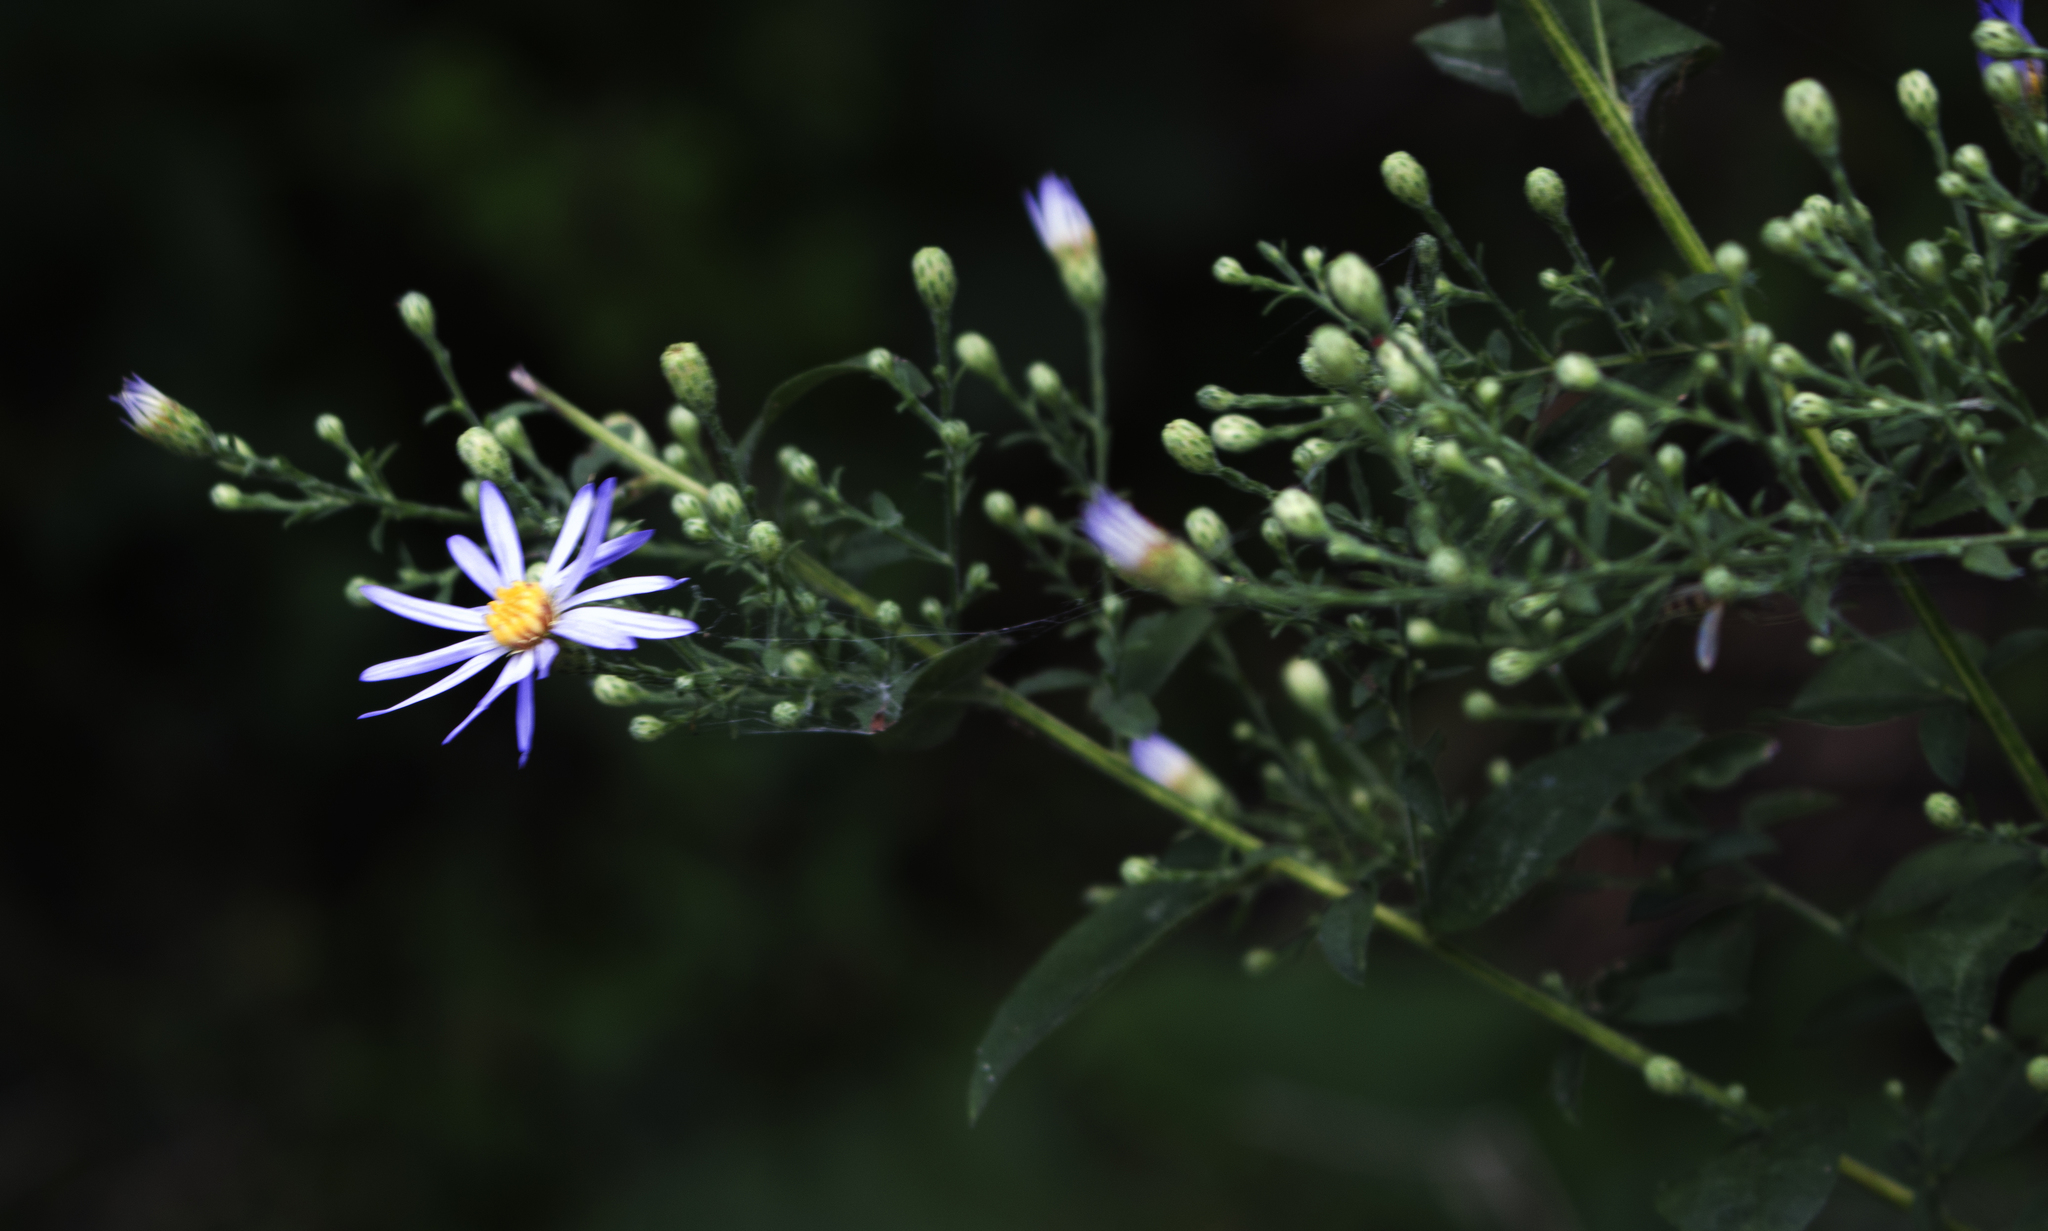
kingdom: Plantae
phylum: Tracheophyta
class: Magnoliopsida
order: Asterales
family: Asteraceae
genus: Symphyotrichum
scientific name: Symphyotrichum shortii
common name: Short's aster
